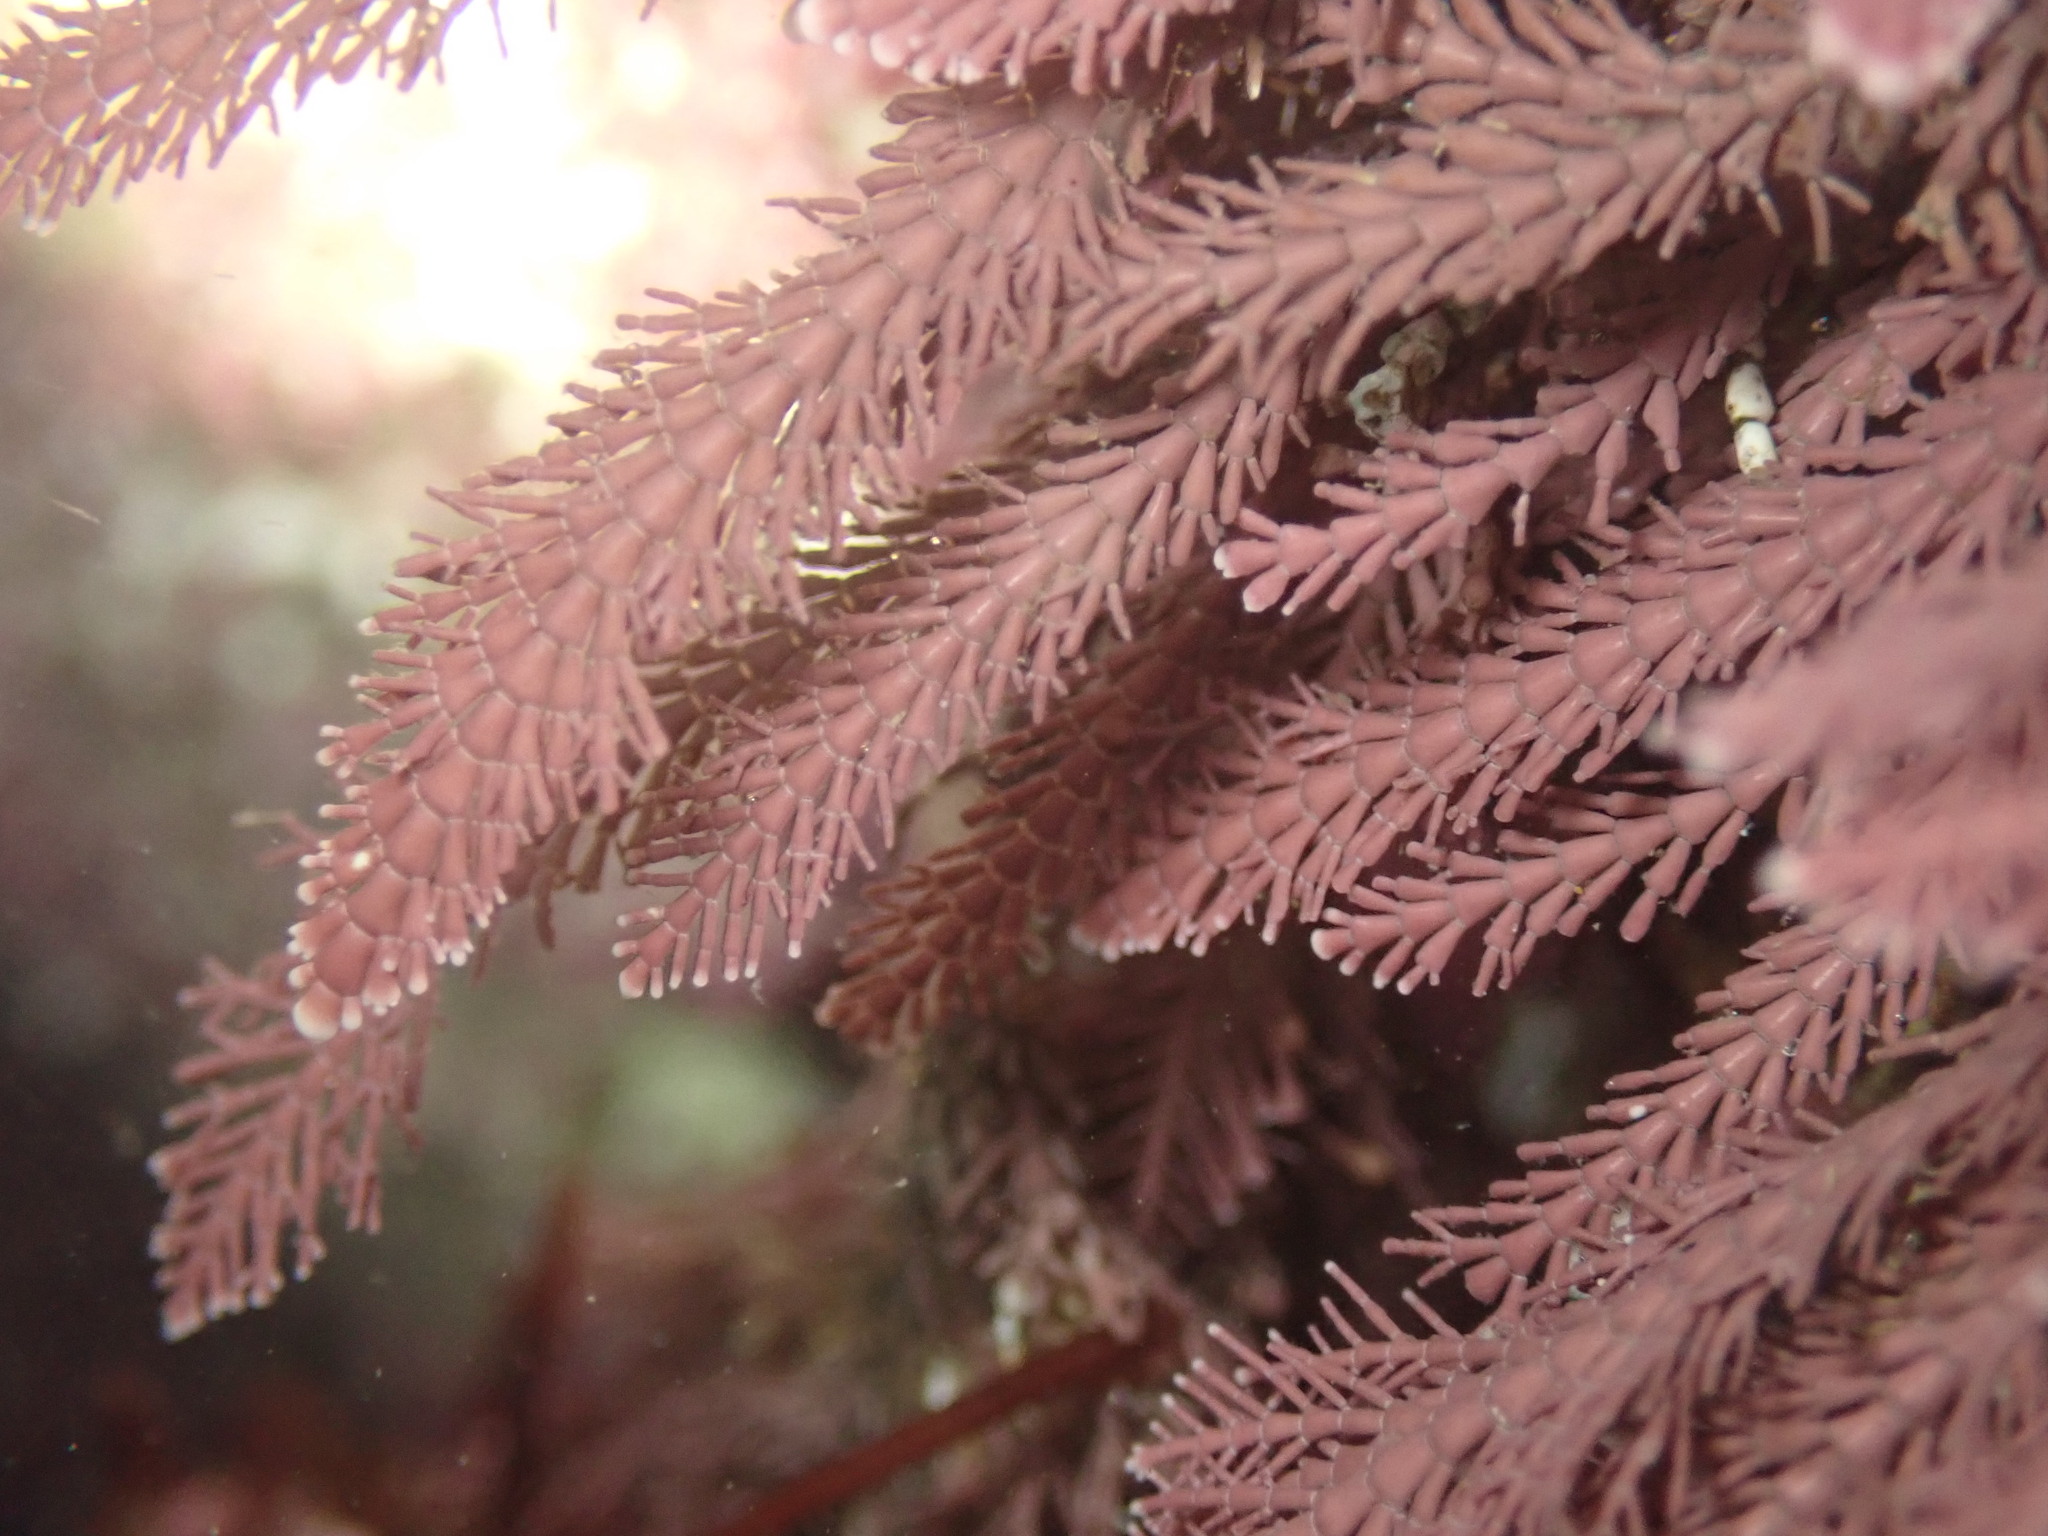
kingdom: Plantae
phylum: Rhodophyta
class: Florideophyceae
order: Corallinales
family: Corallinaceae
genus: Corallina
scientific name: Corallina officinalis
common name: Coral weed
